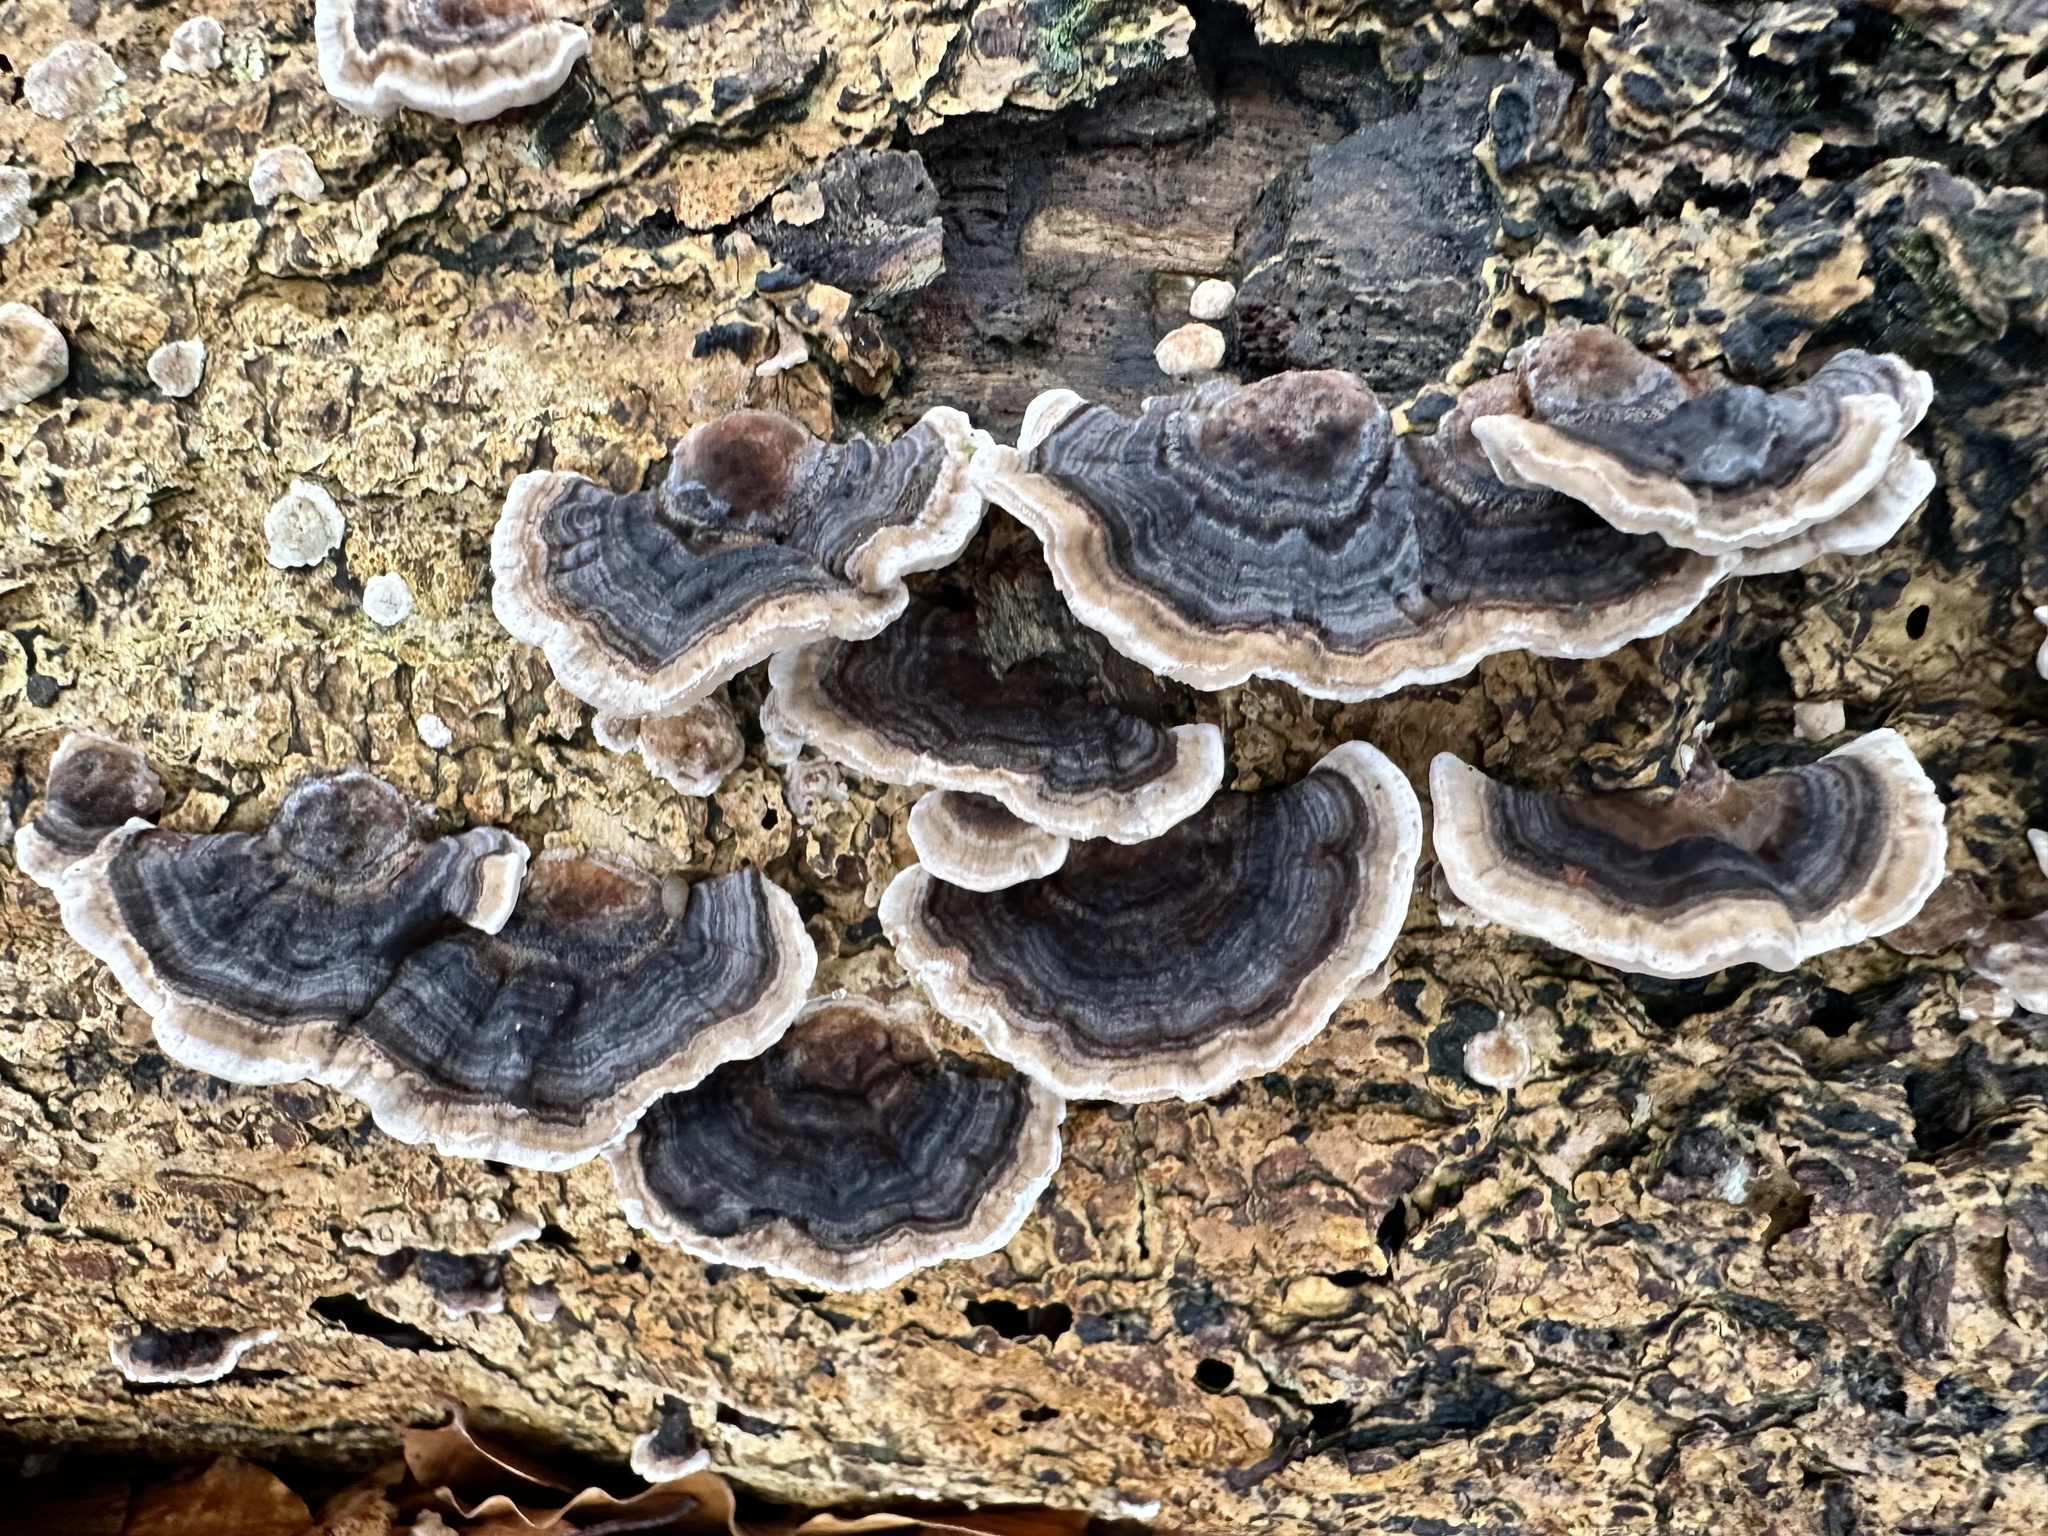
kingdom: Fungi
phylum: Basidiomycota
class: Agaricomycetes
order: Polyporales
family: Polyporaceae
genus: Trametes
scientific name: Trametes versicolor
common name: Turkeytail
